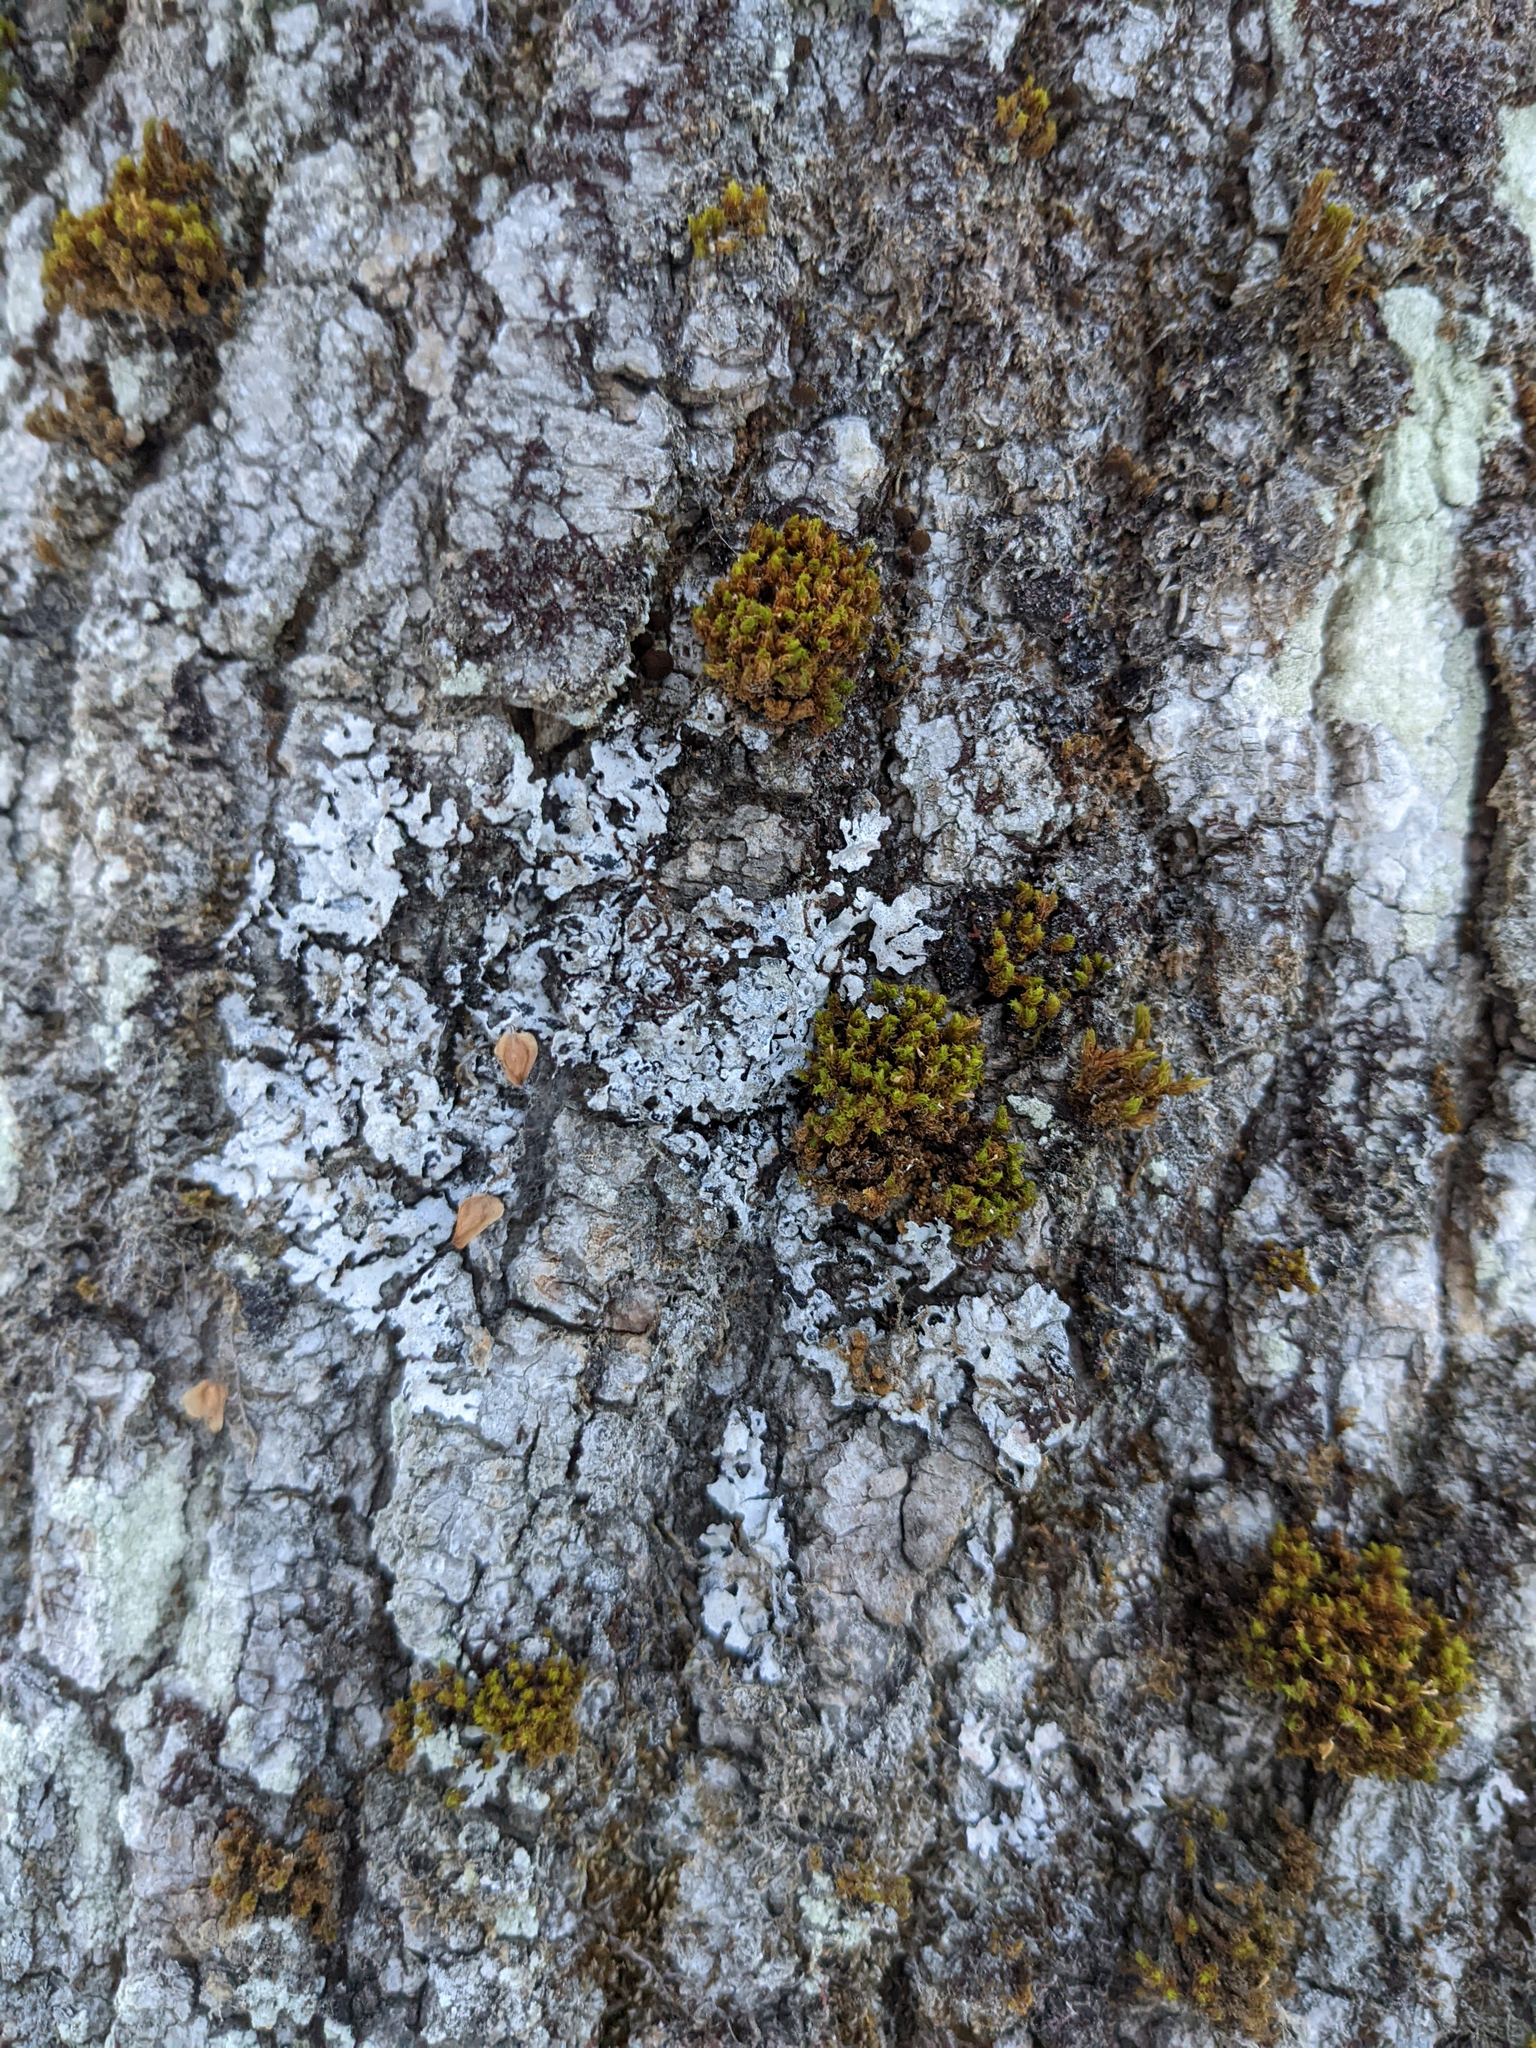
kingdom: Plantae
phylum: Bryophyta
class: Bryopsida
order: Orthotrichales
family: Orthotrichaceae
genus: Ulota
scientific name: Ulota crispa
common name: Crisped pincushion moss
